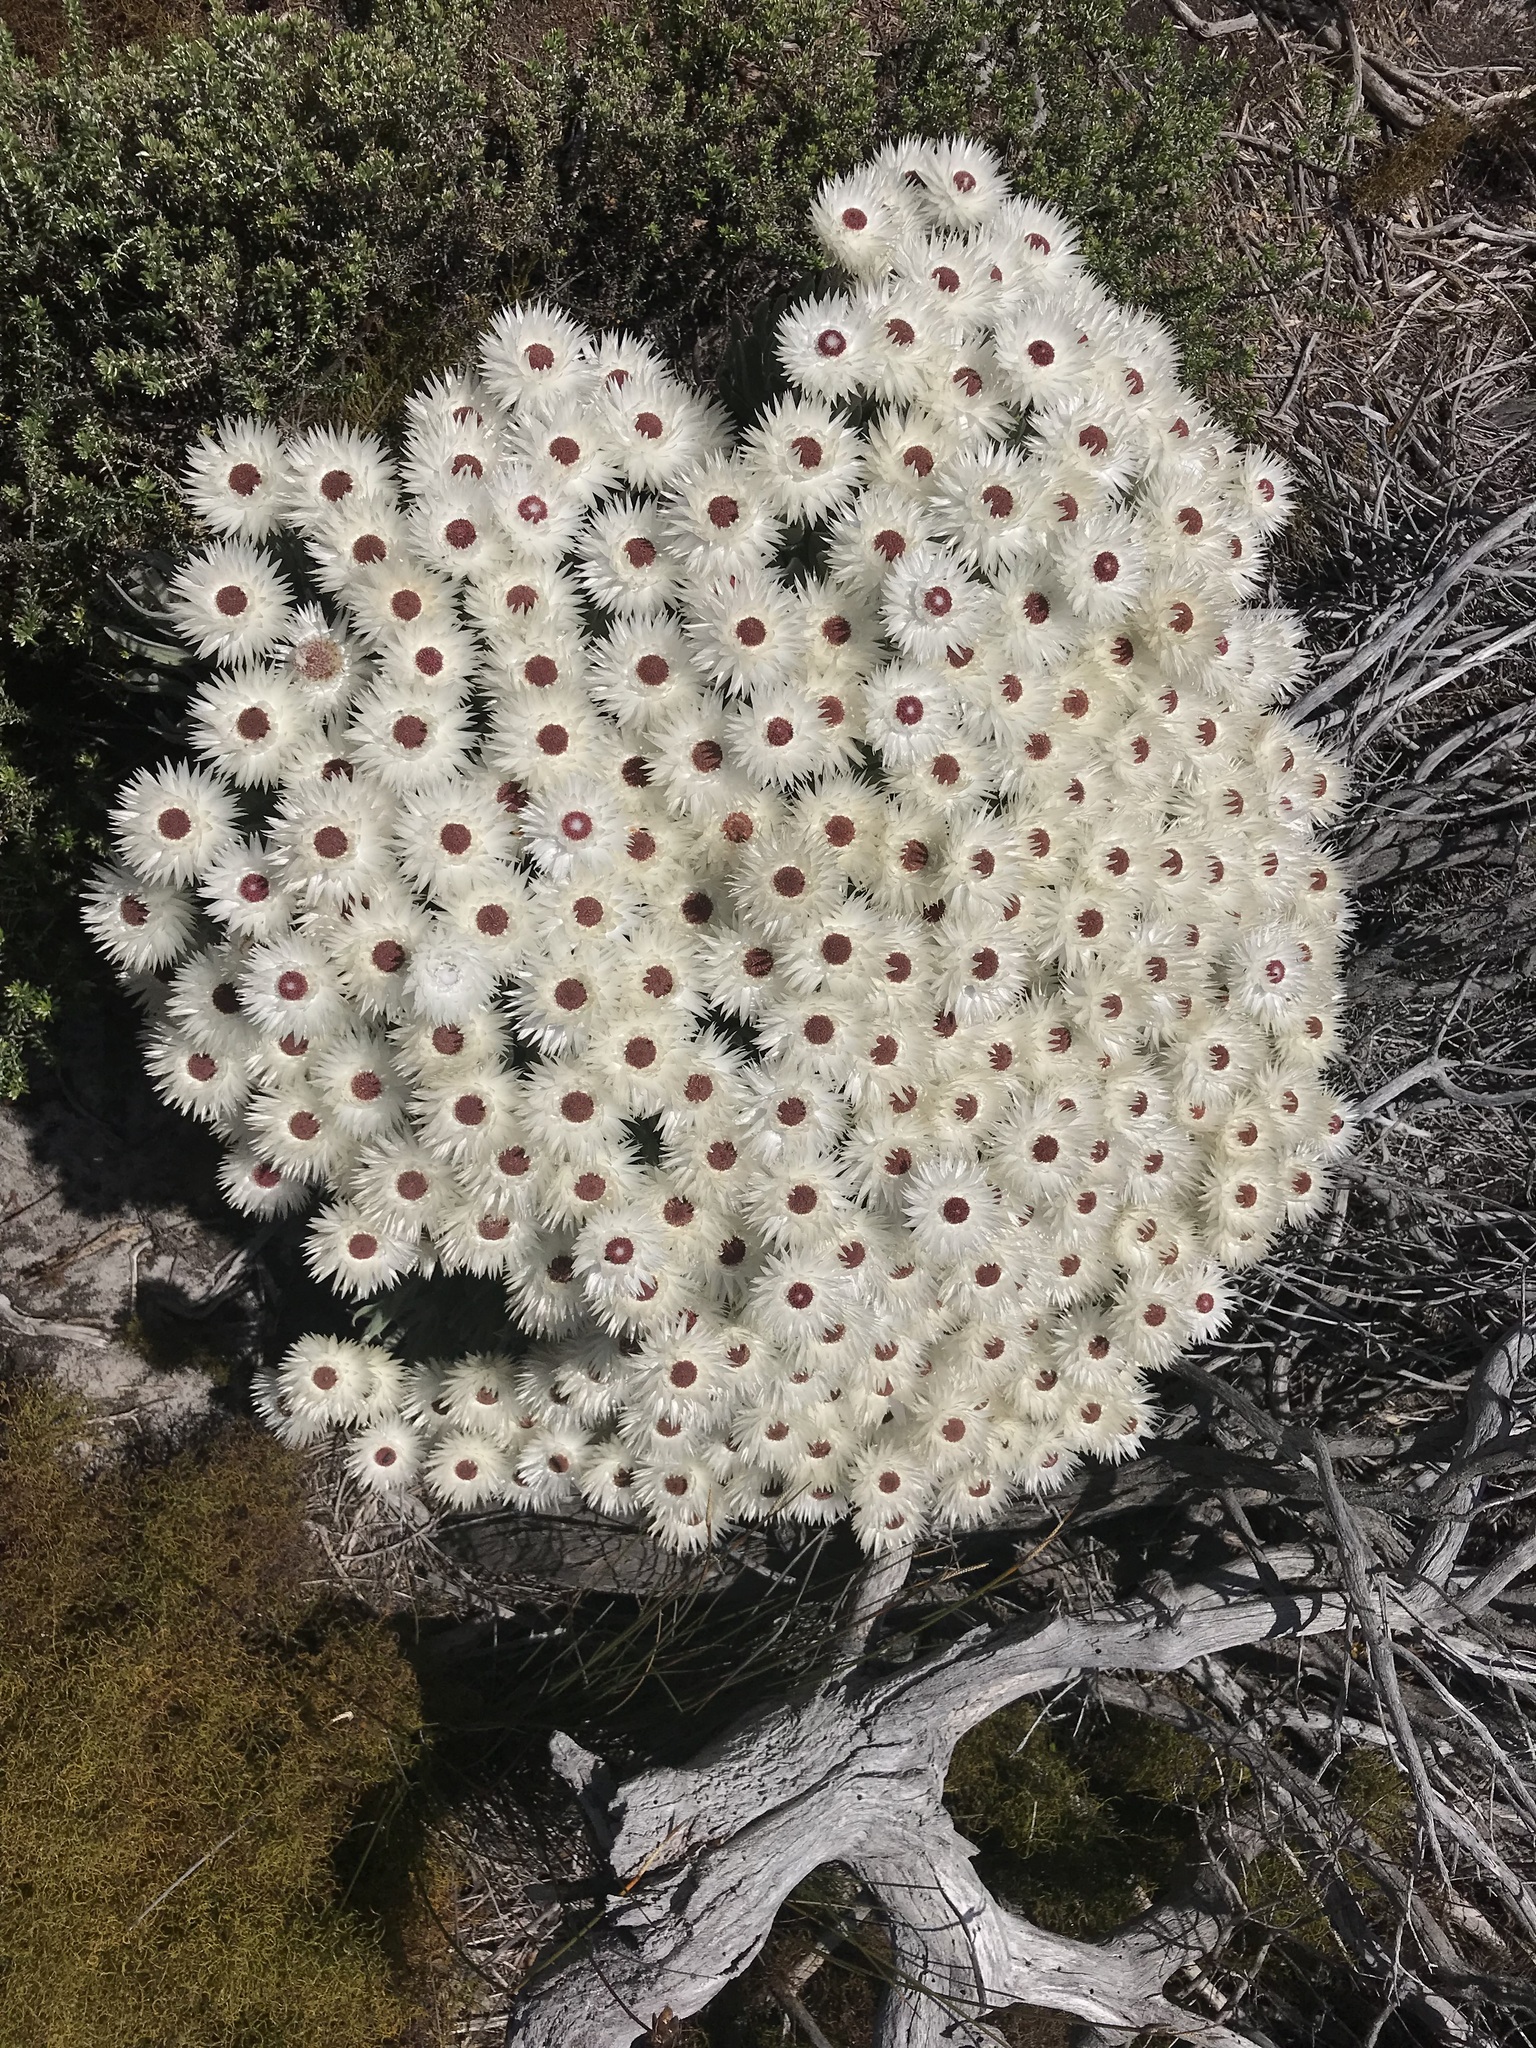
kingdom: Plantae
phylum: Tracheophyta
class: Magnoliopsida
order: Asterales
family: Asteraceae
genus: Syncarpha
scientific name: Syncarpha vestita
